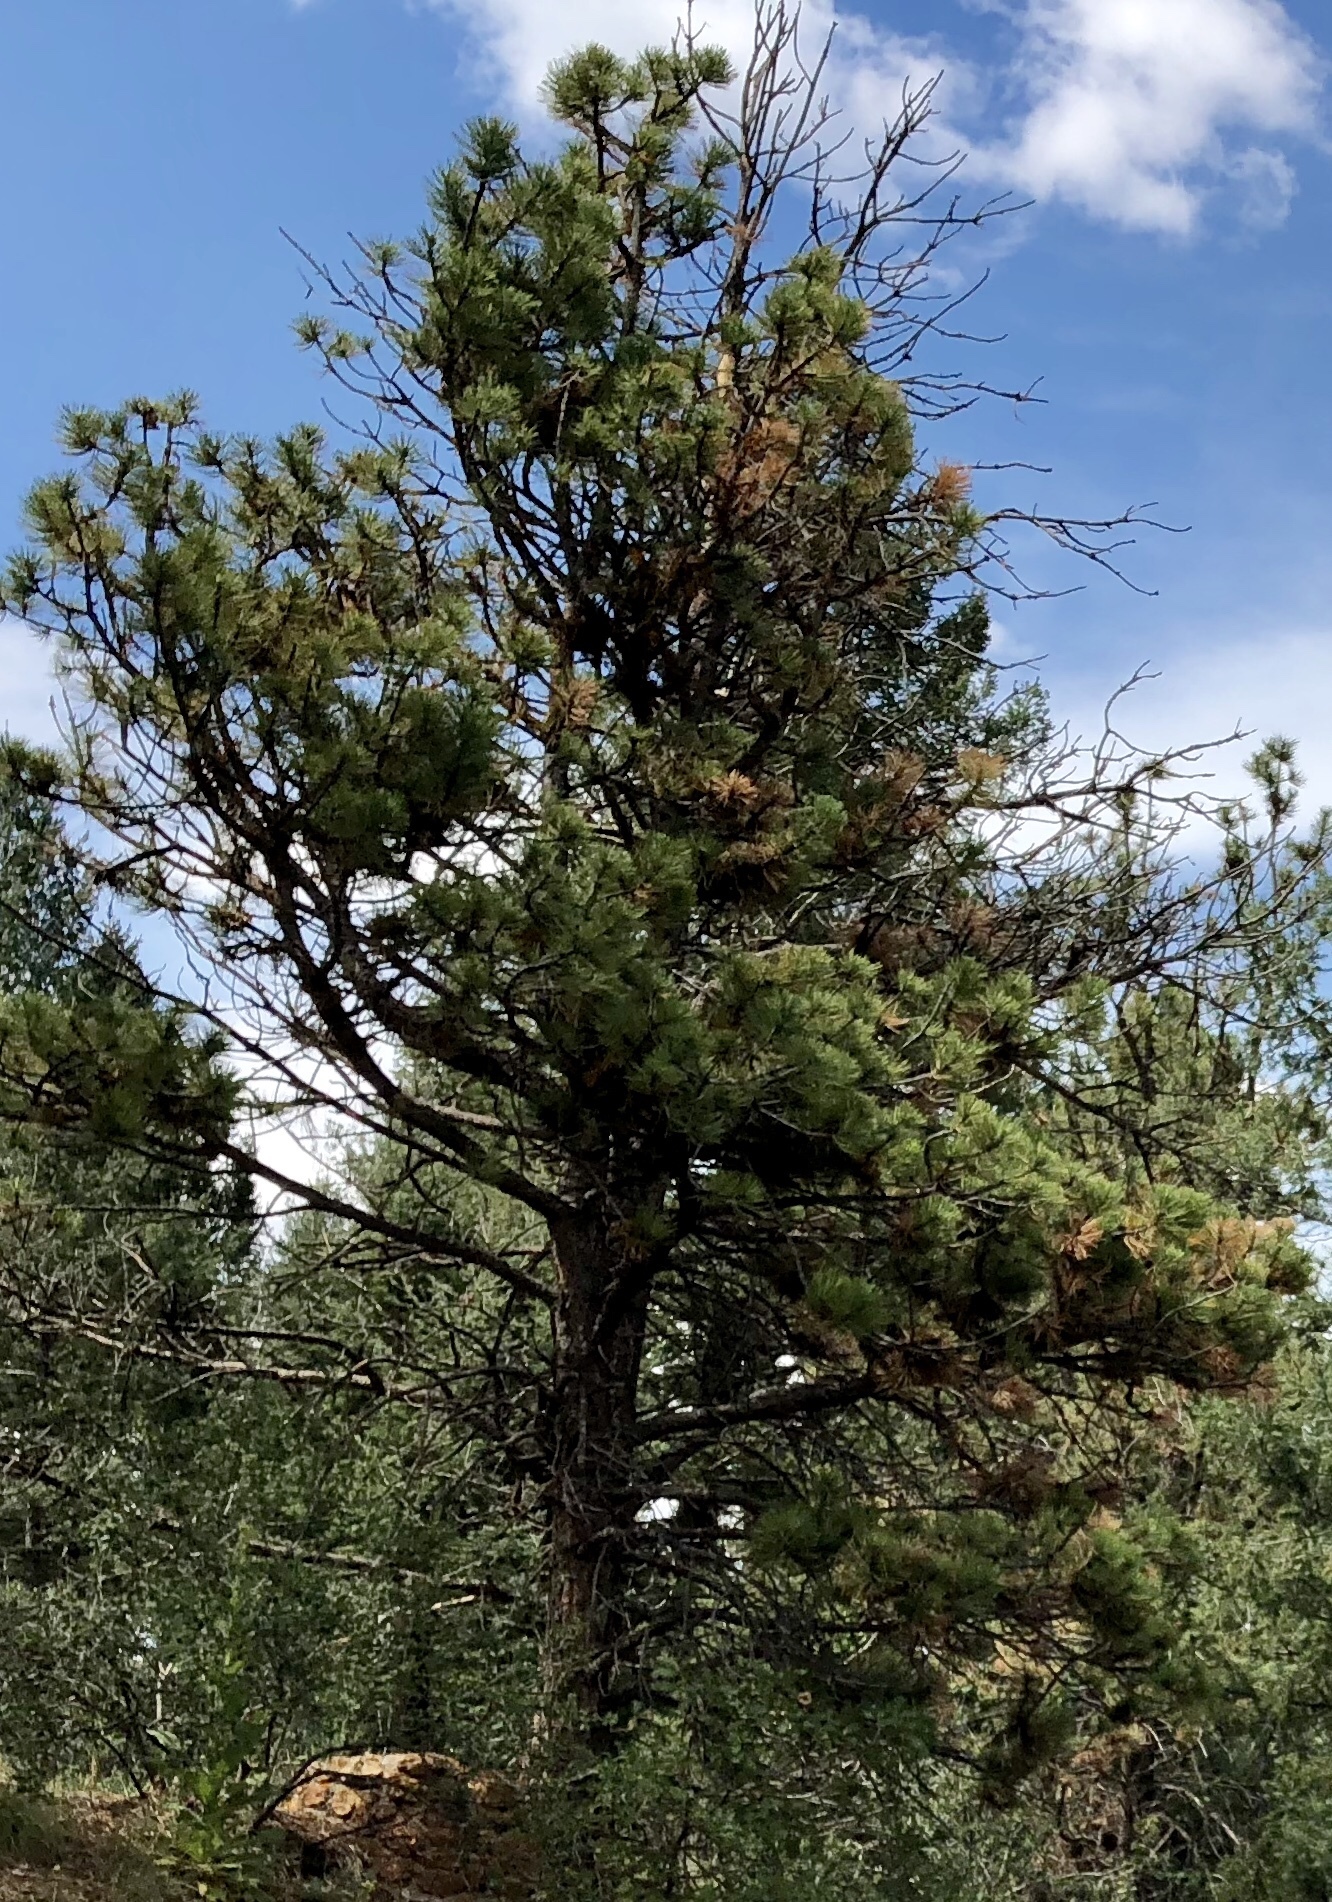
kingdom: Plantae
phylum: Tracheophyta
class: Pinopsida
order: Pinales
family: Pinaceae
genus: Pinus
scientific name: Pinus ponderosa
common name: Western yellow-pine
